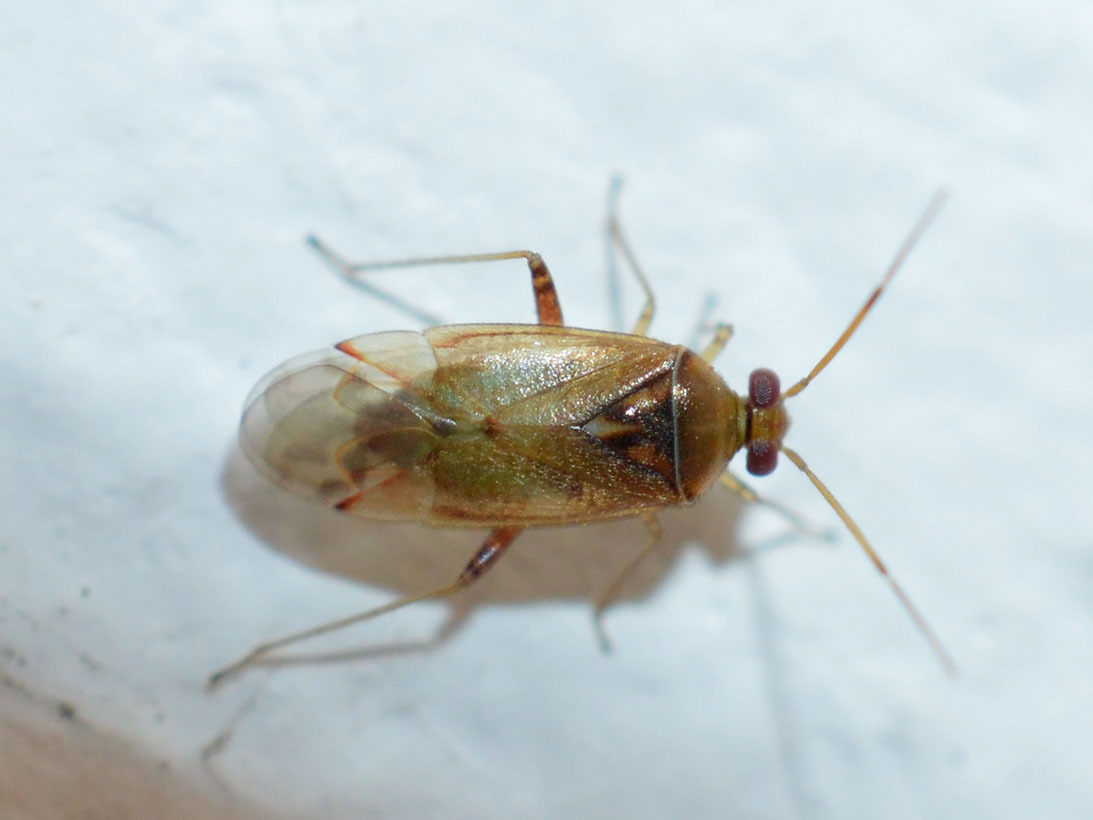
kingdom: Animalia
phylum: Arthropoda
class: Insecta
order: Hemiptera
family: Miridae
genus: Pinalitus
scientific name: Pinalitus cervinus
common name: Plant bug
